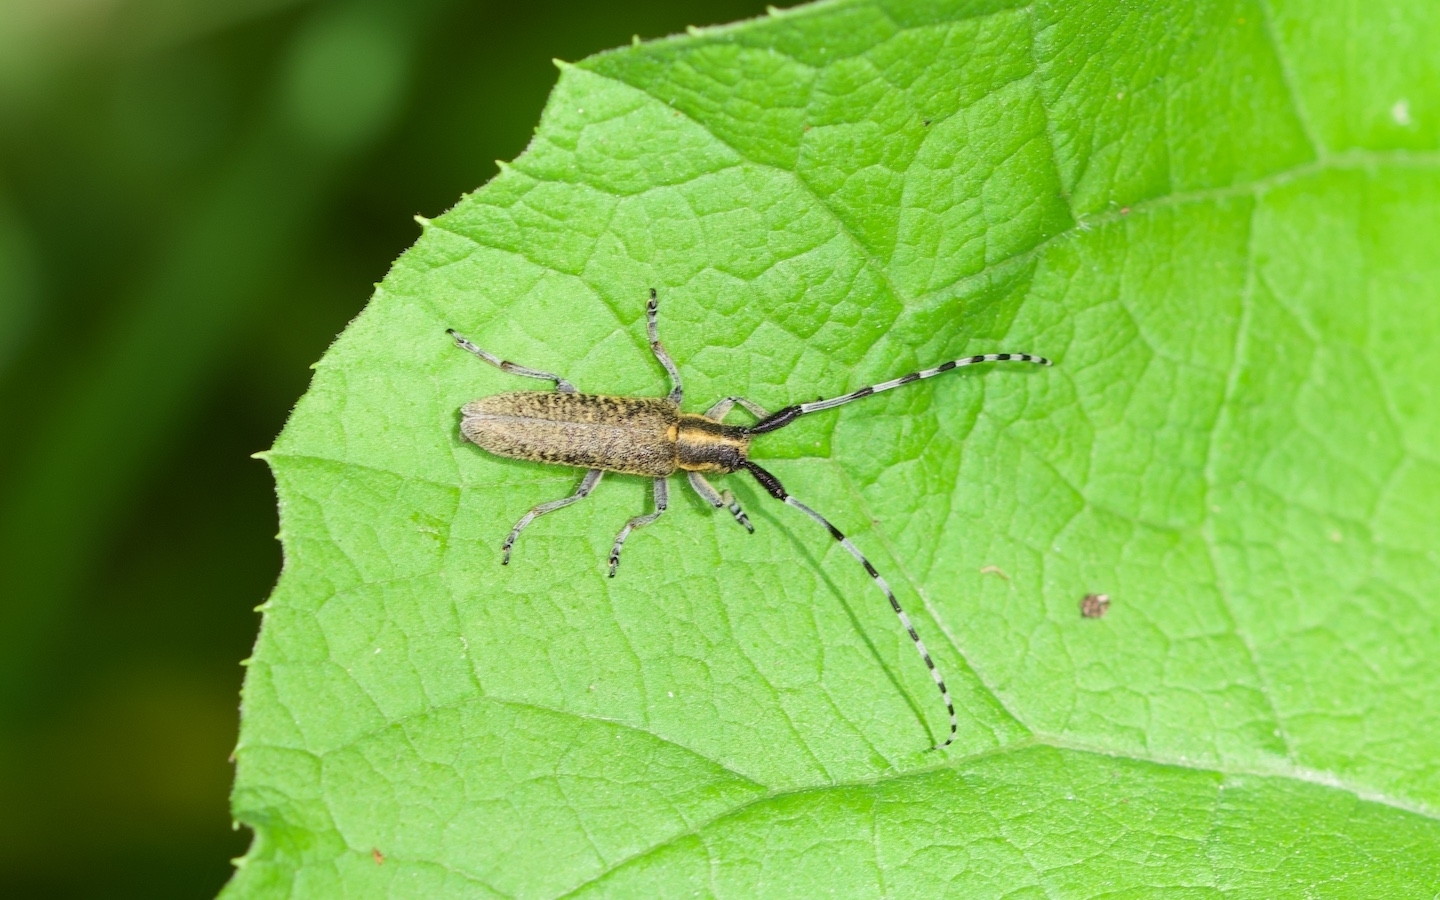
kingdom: Animalia
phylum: Arthropoda
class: Insecta
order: Coleoptera
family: Cerambycidae
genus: Agapanthia
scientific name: Agapanthia villosoviridescens
